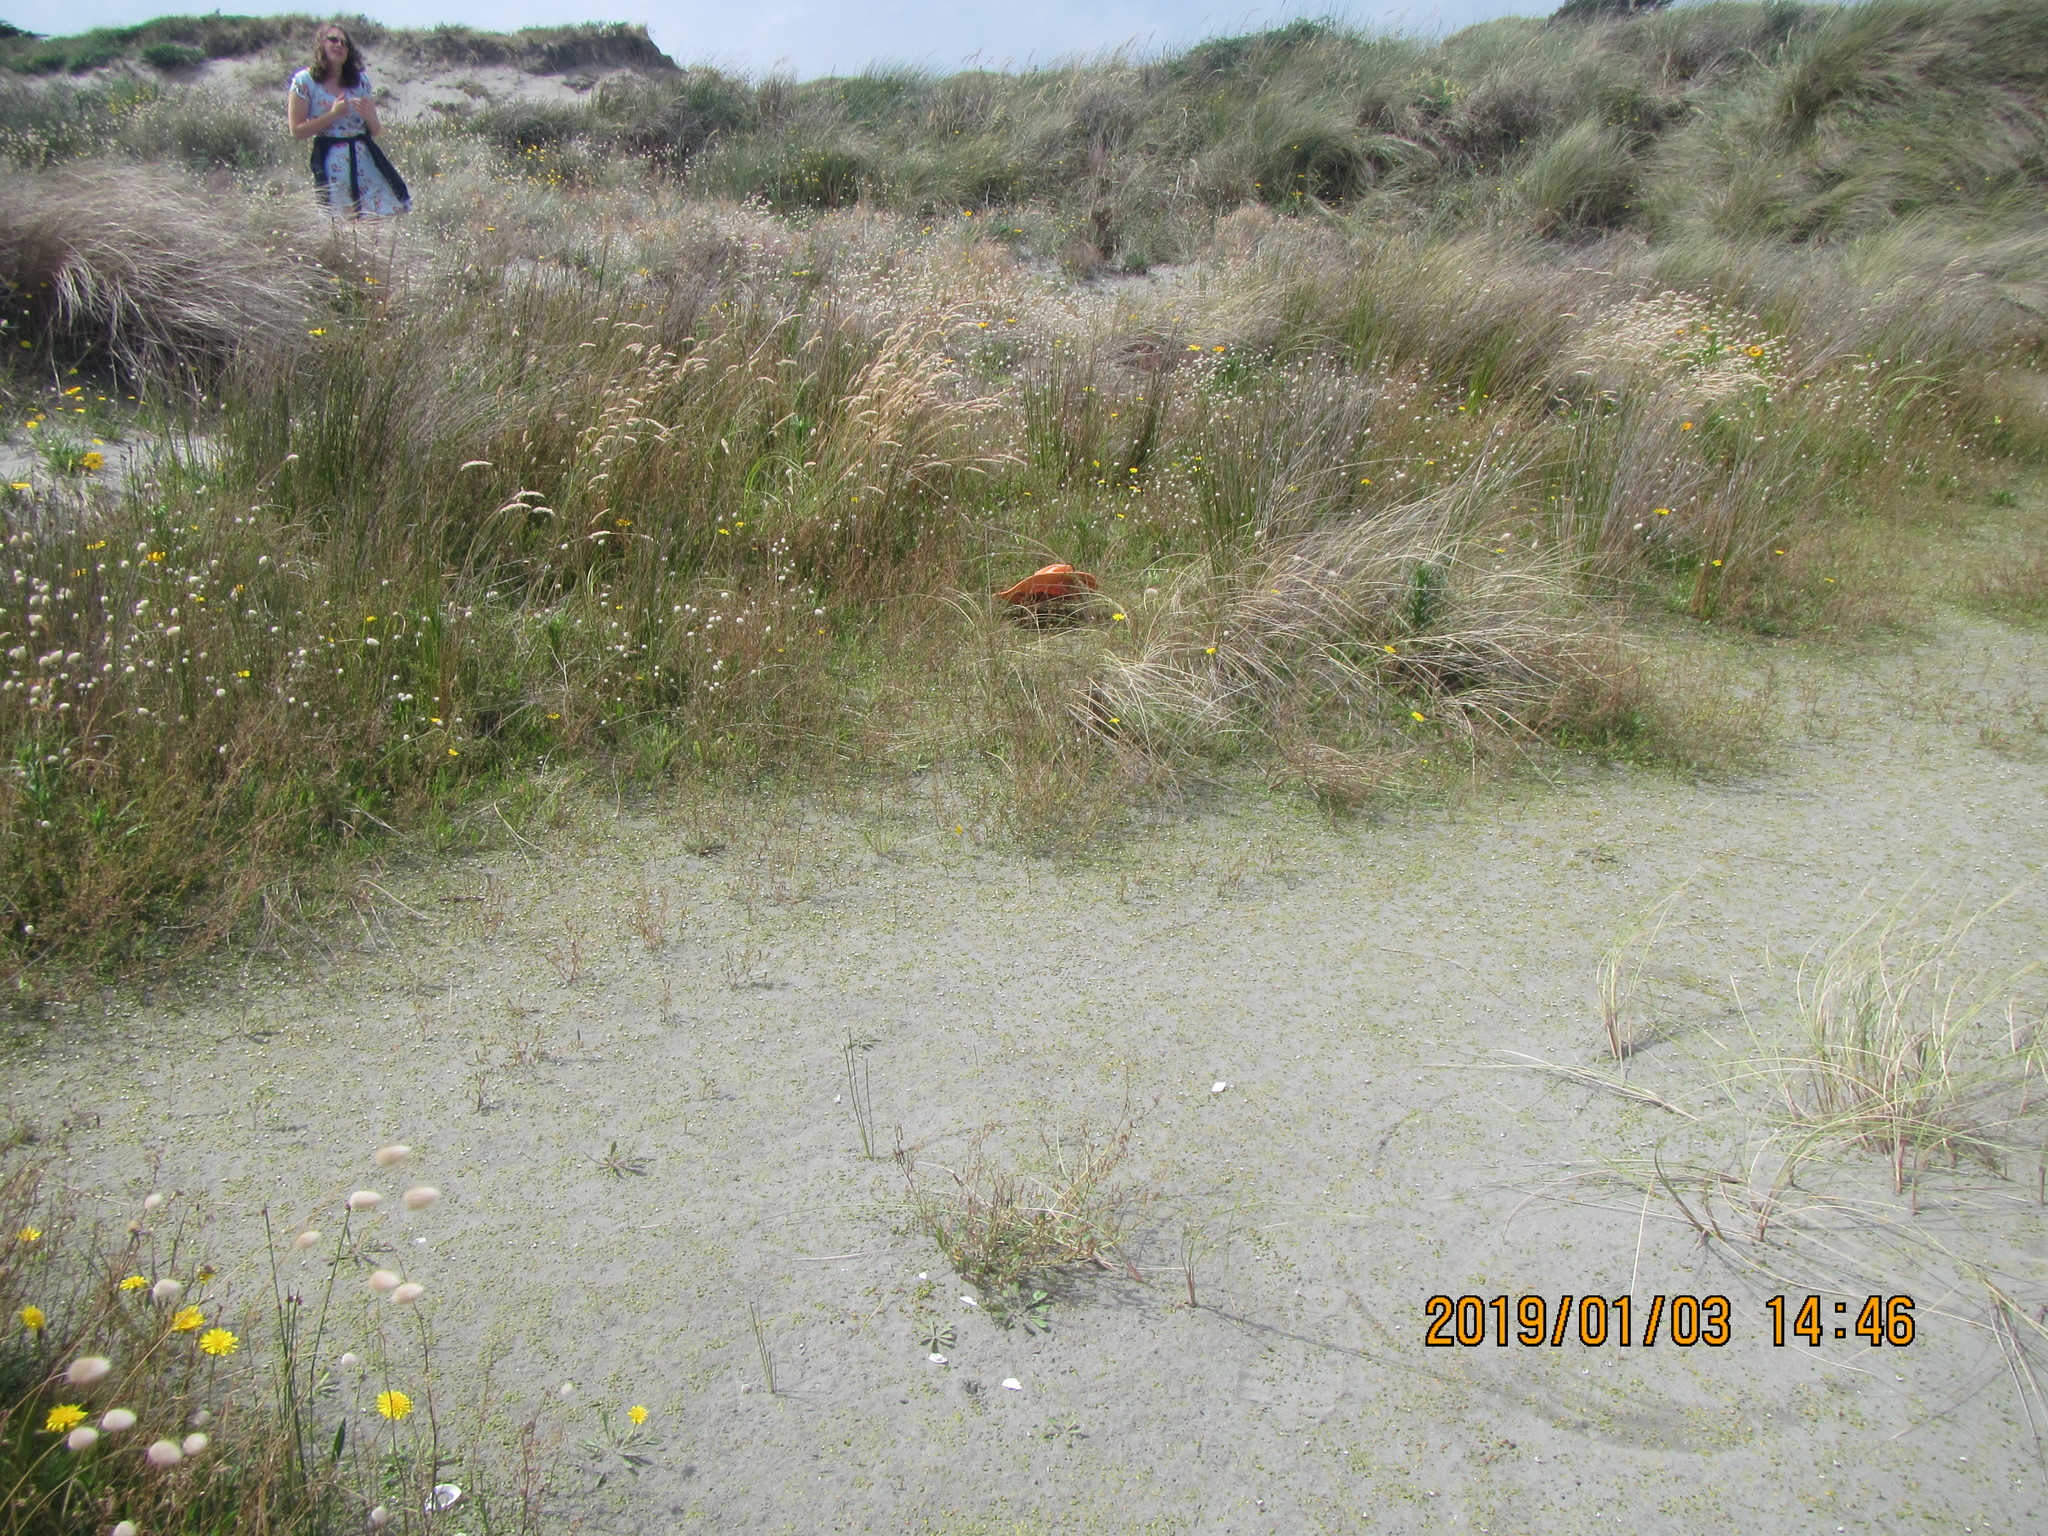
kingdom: Plantae
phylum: Tracheophyta
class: Magnoliopsida
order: Asterales
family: Goodeniaceae
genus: Goodenia
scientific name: Goodenia heenanii
